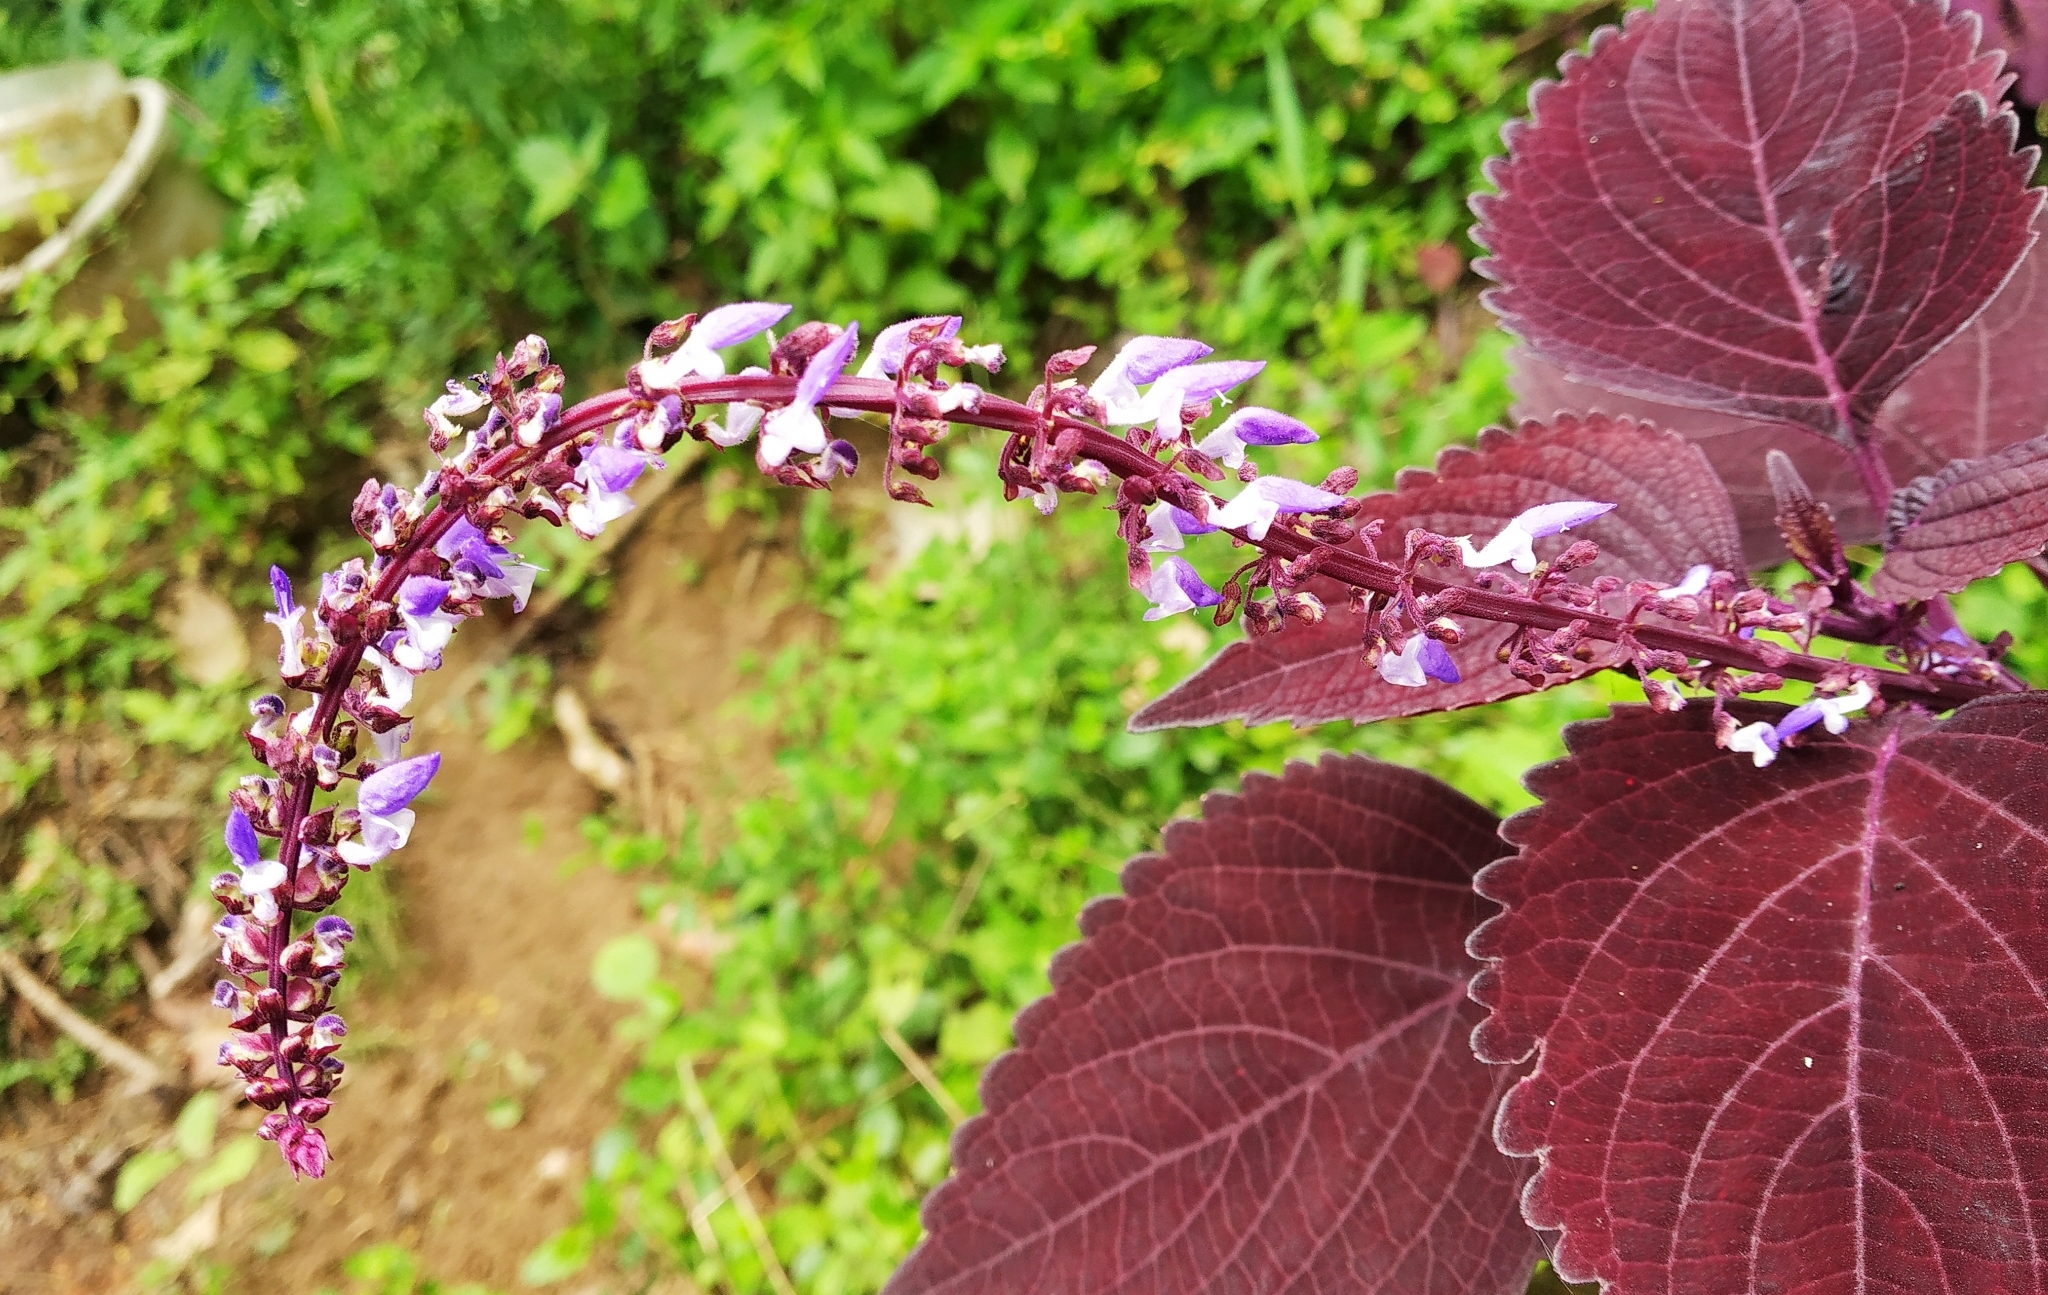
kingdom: Plantae
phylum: Tracheophyta
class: Magnoliopsida
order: Lamiales
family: Lamiaceae
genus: Coleus
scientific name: Coleus scutellarioides
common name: Coleus
